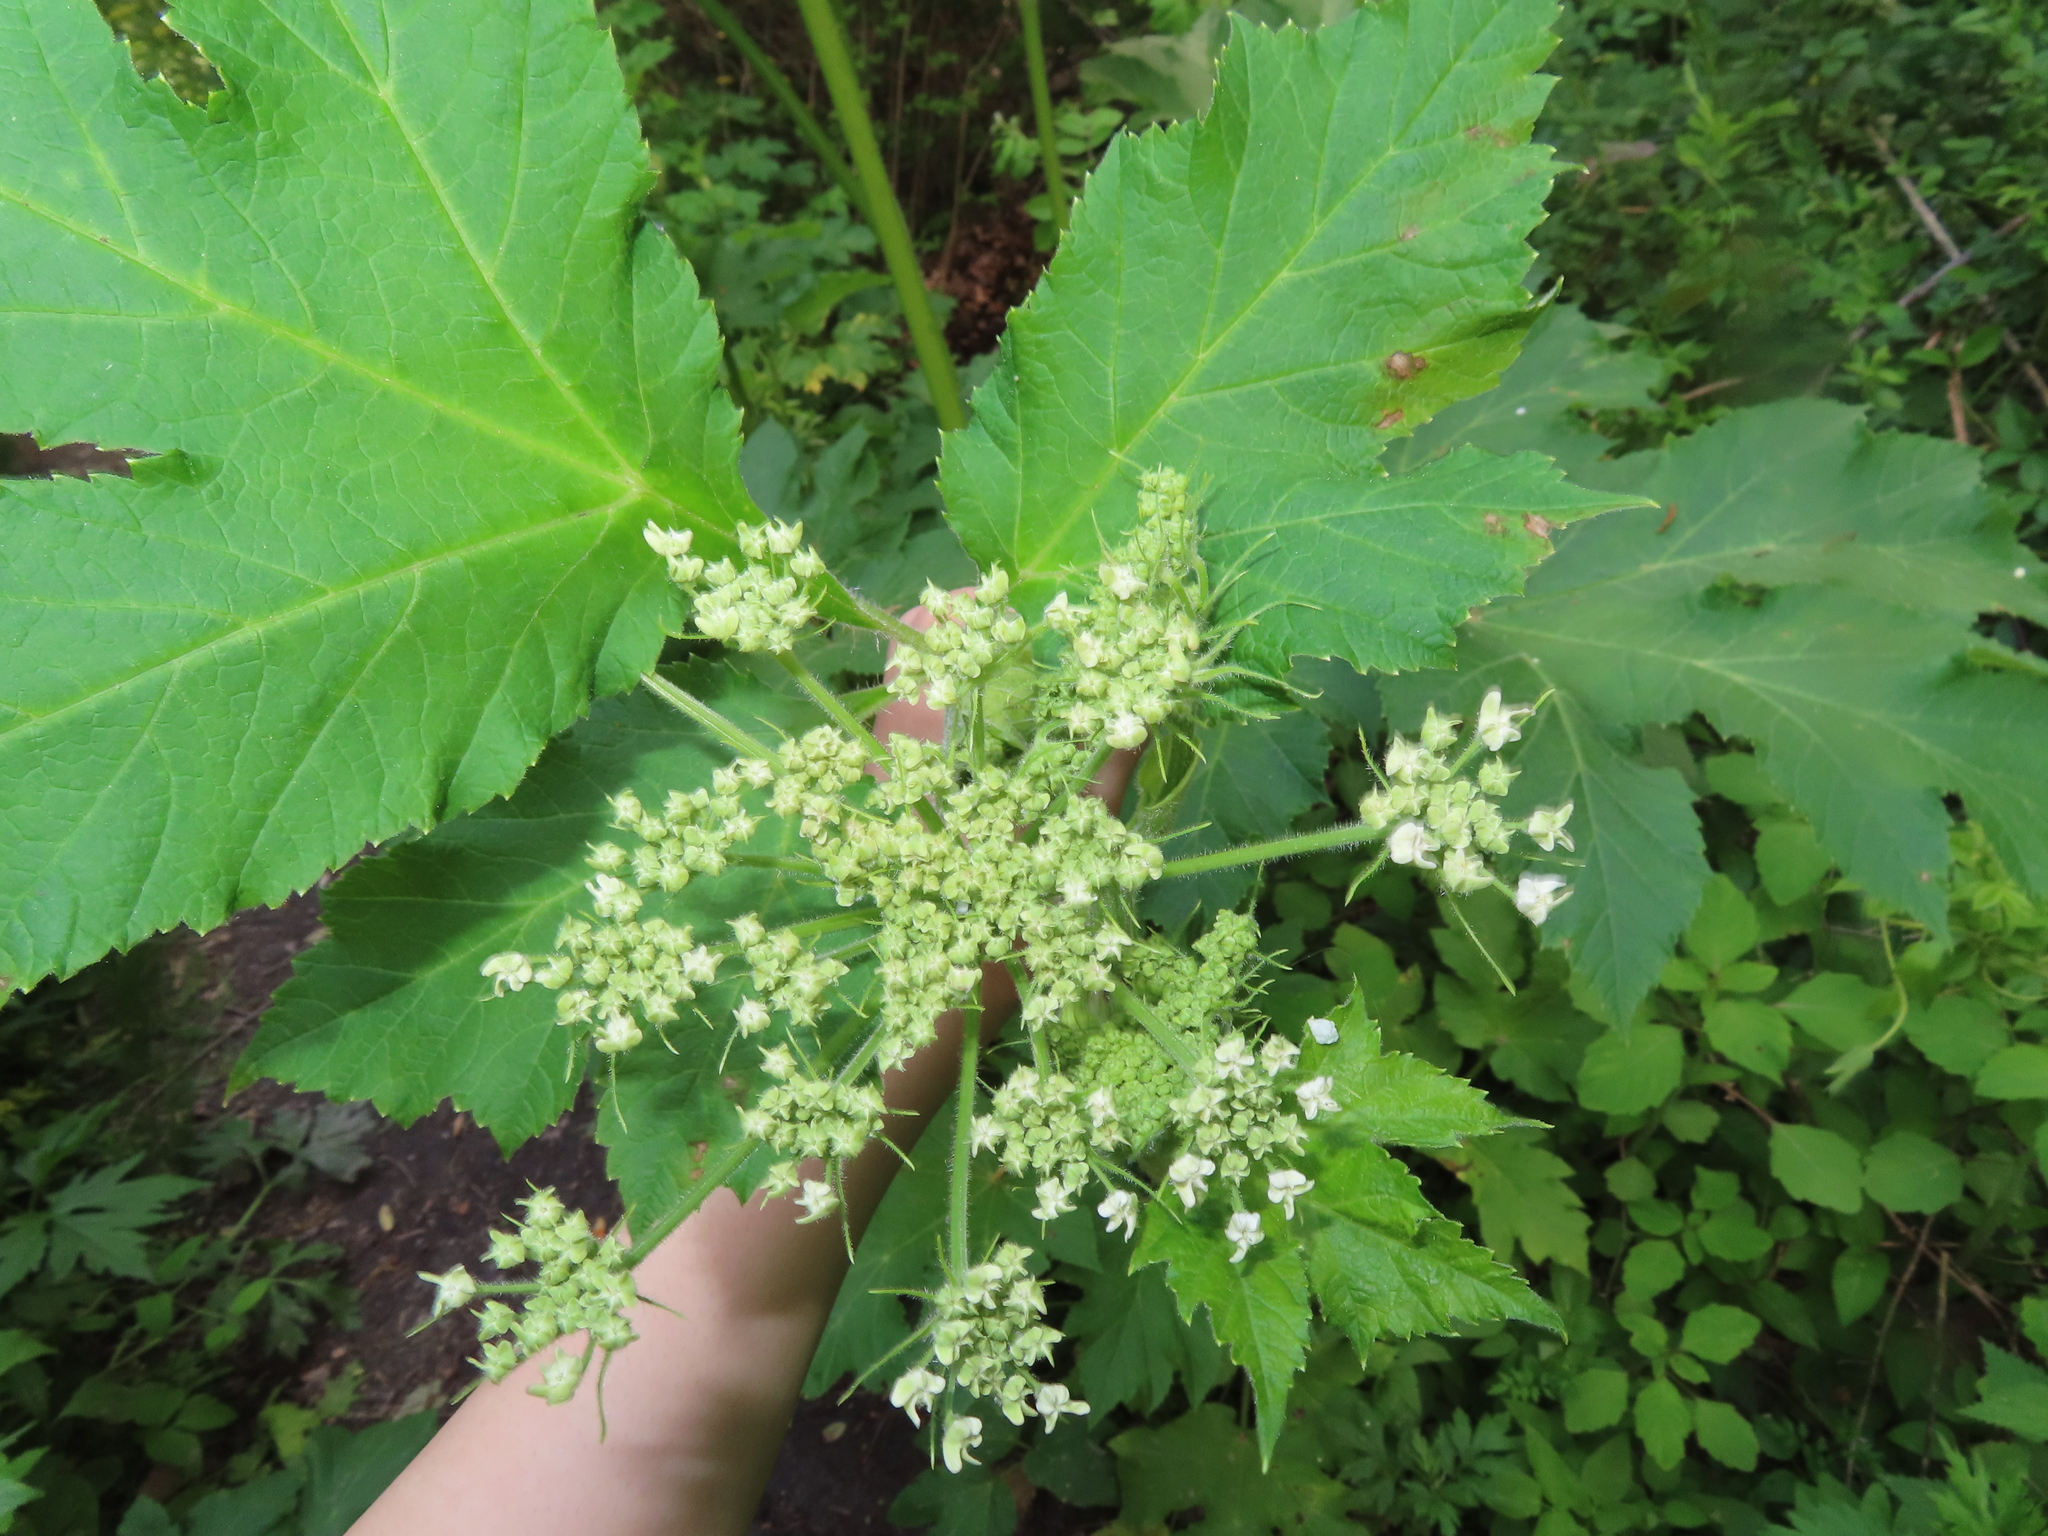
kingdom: Plantae
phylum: Tracheophyta
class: Magnoliopsida
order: Apiales
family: Apiaceae
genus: Heracleum
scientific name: Heracleum maximum
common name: American cow parsnip
